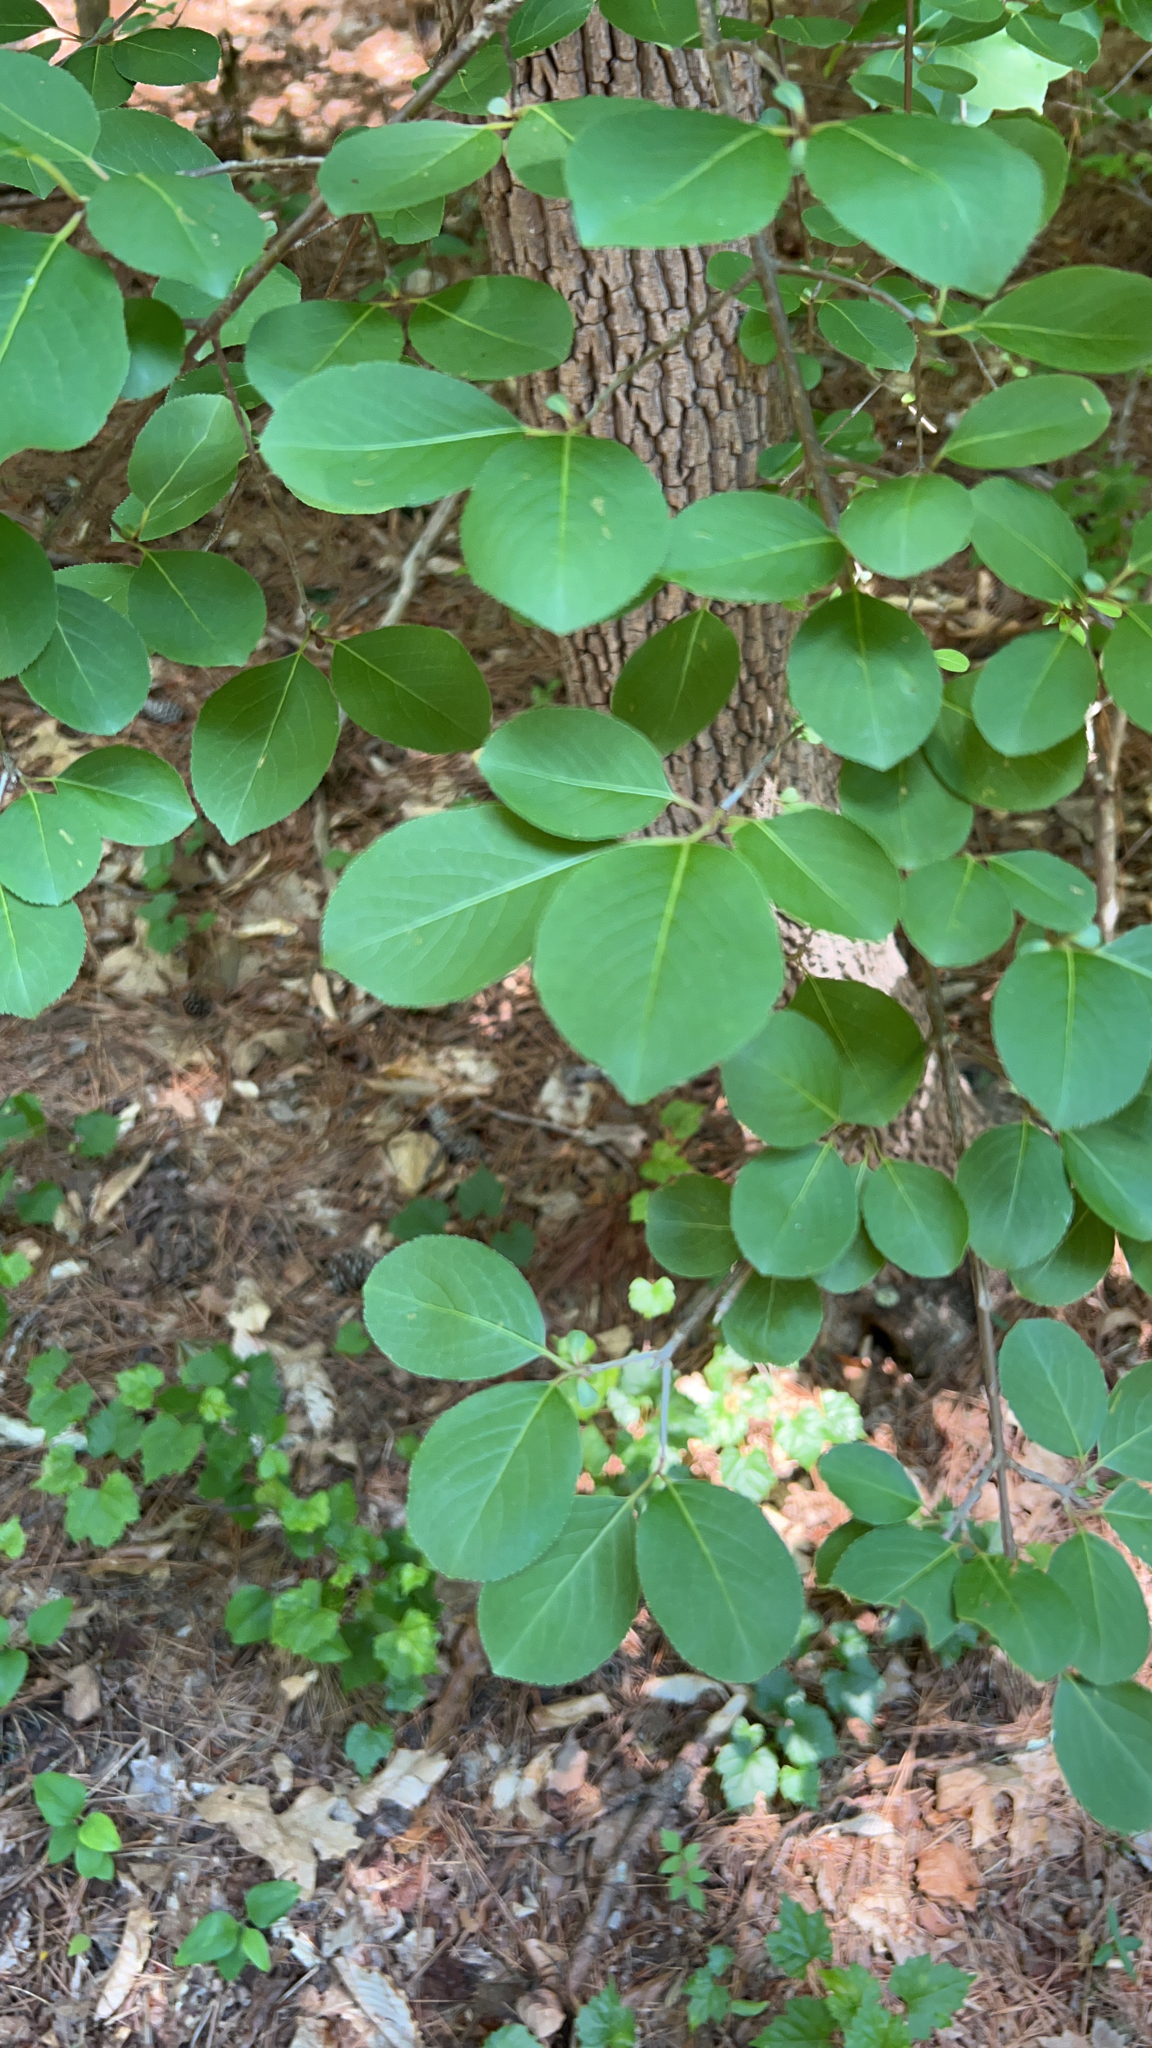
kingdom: Plantae
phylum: Tracheophyta
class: Magnoliopsida
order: Dipsacales
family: Viburnaceae
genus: Viburnum
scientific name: Viburnum prunifolium
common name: Black haw
